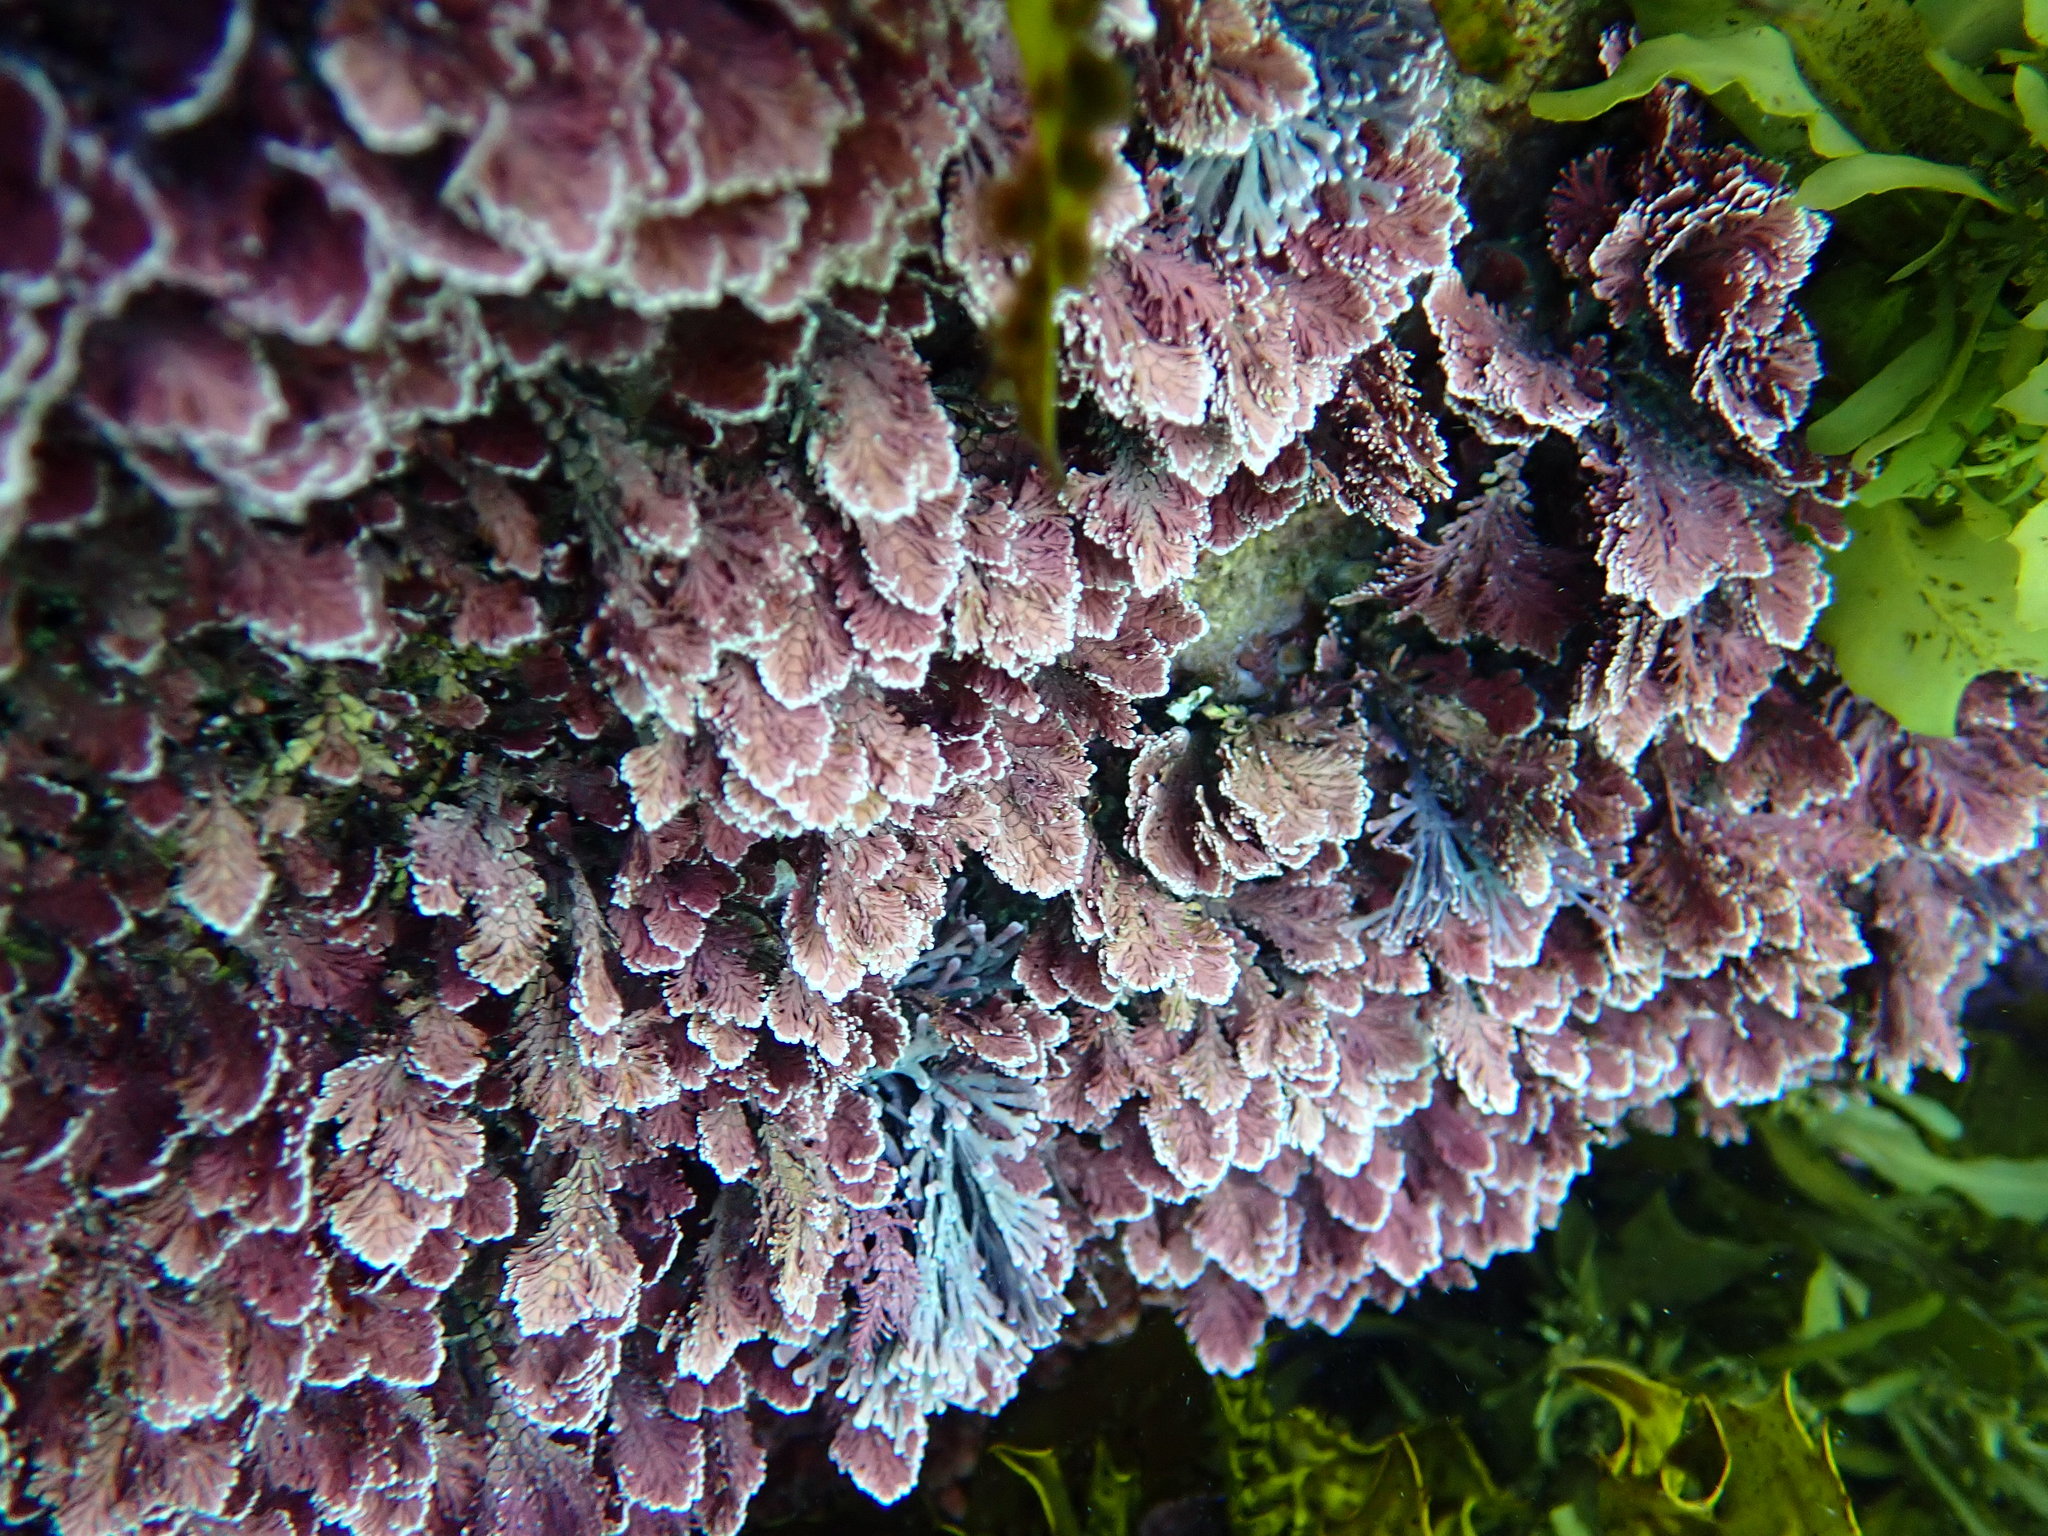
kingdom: Plantae
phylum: Rhodophyta
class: Florideophyceae
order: Corallinales
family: Corallinaceae
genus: Corallina
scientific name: Corallina officinalis
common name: Coral weed
